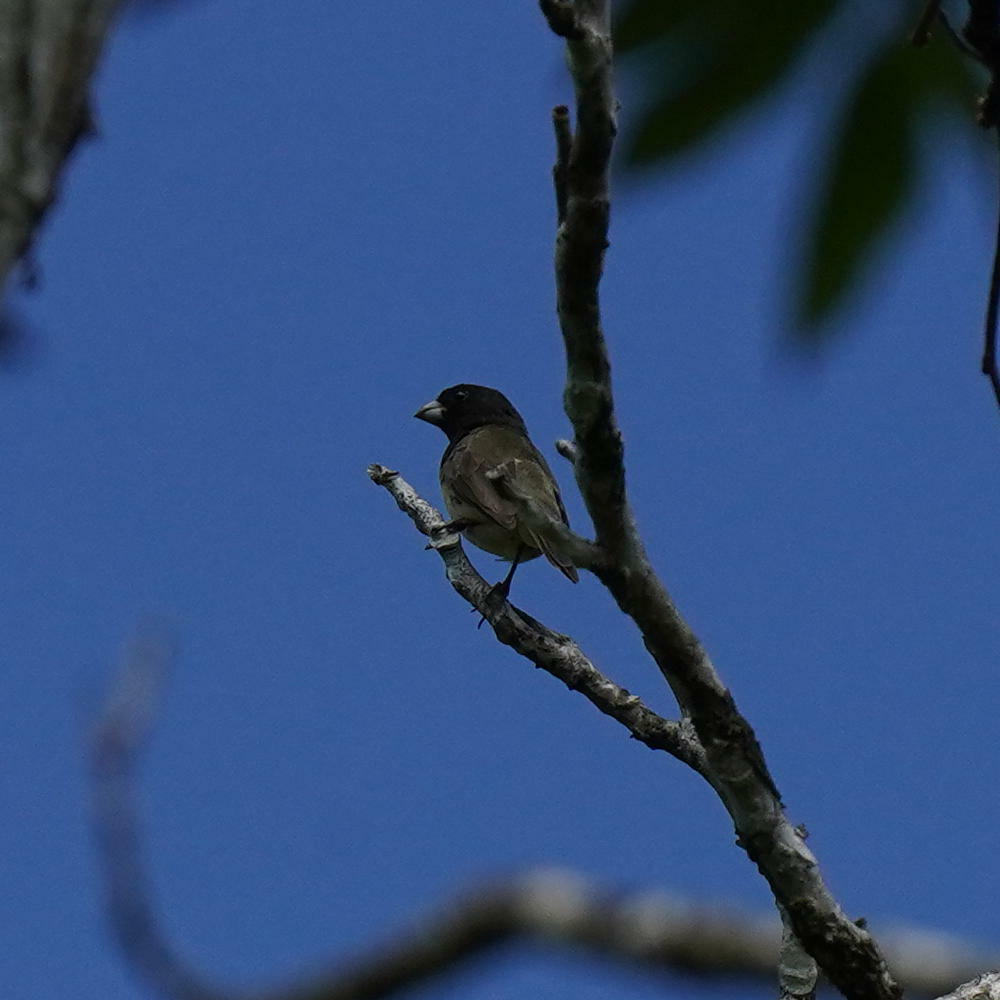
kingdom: Animalia
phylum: Chordata
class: Aves
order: Passeriformes
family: Thraupidae
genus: Sporophila
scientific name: Sporophila nigricollis
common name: Yellow-bellied seedeater
